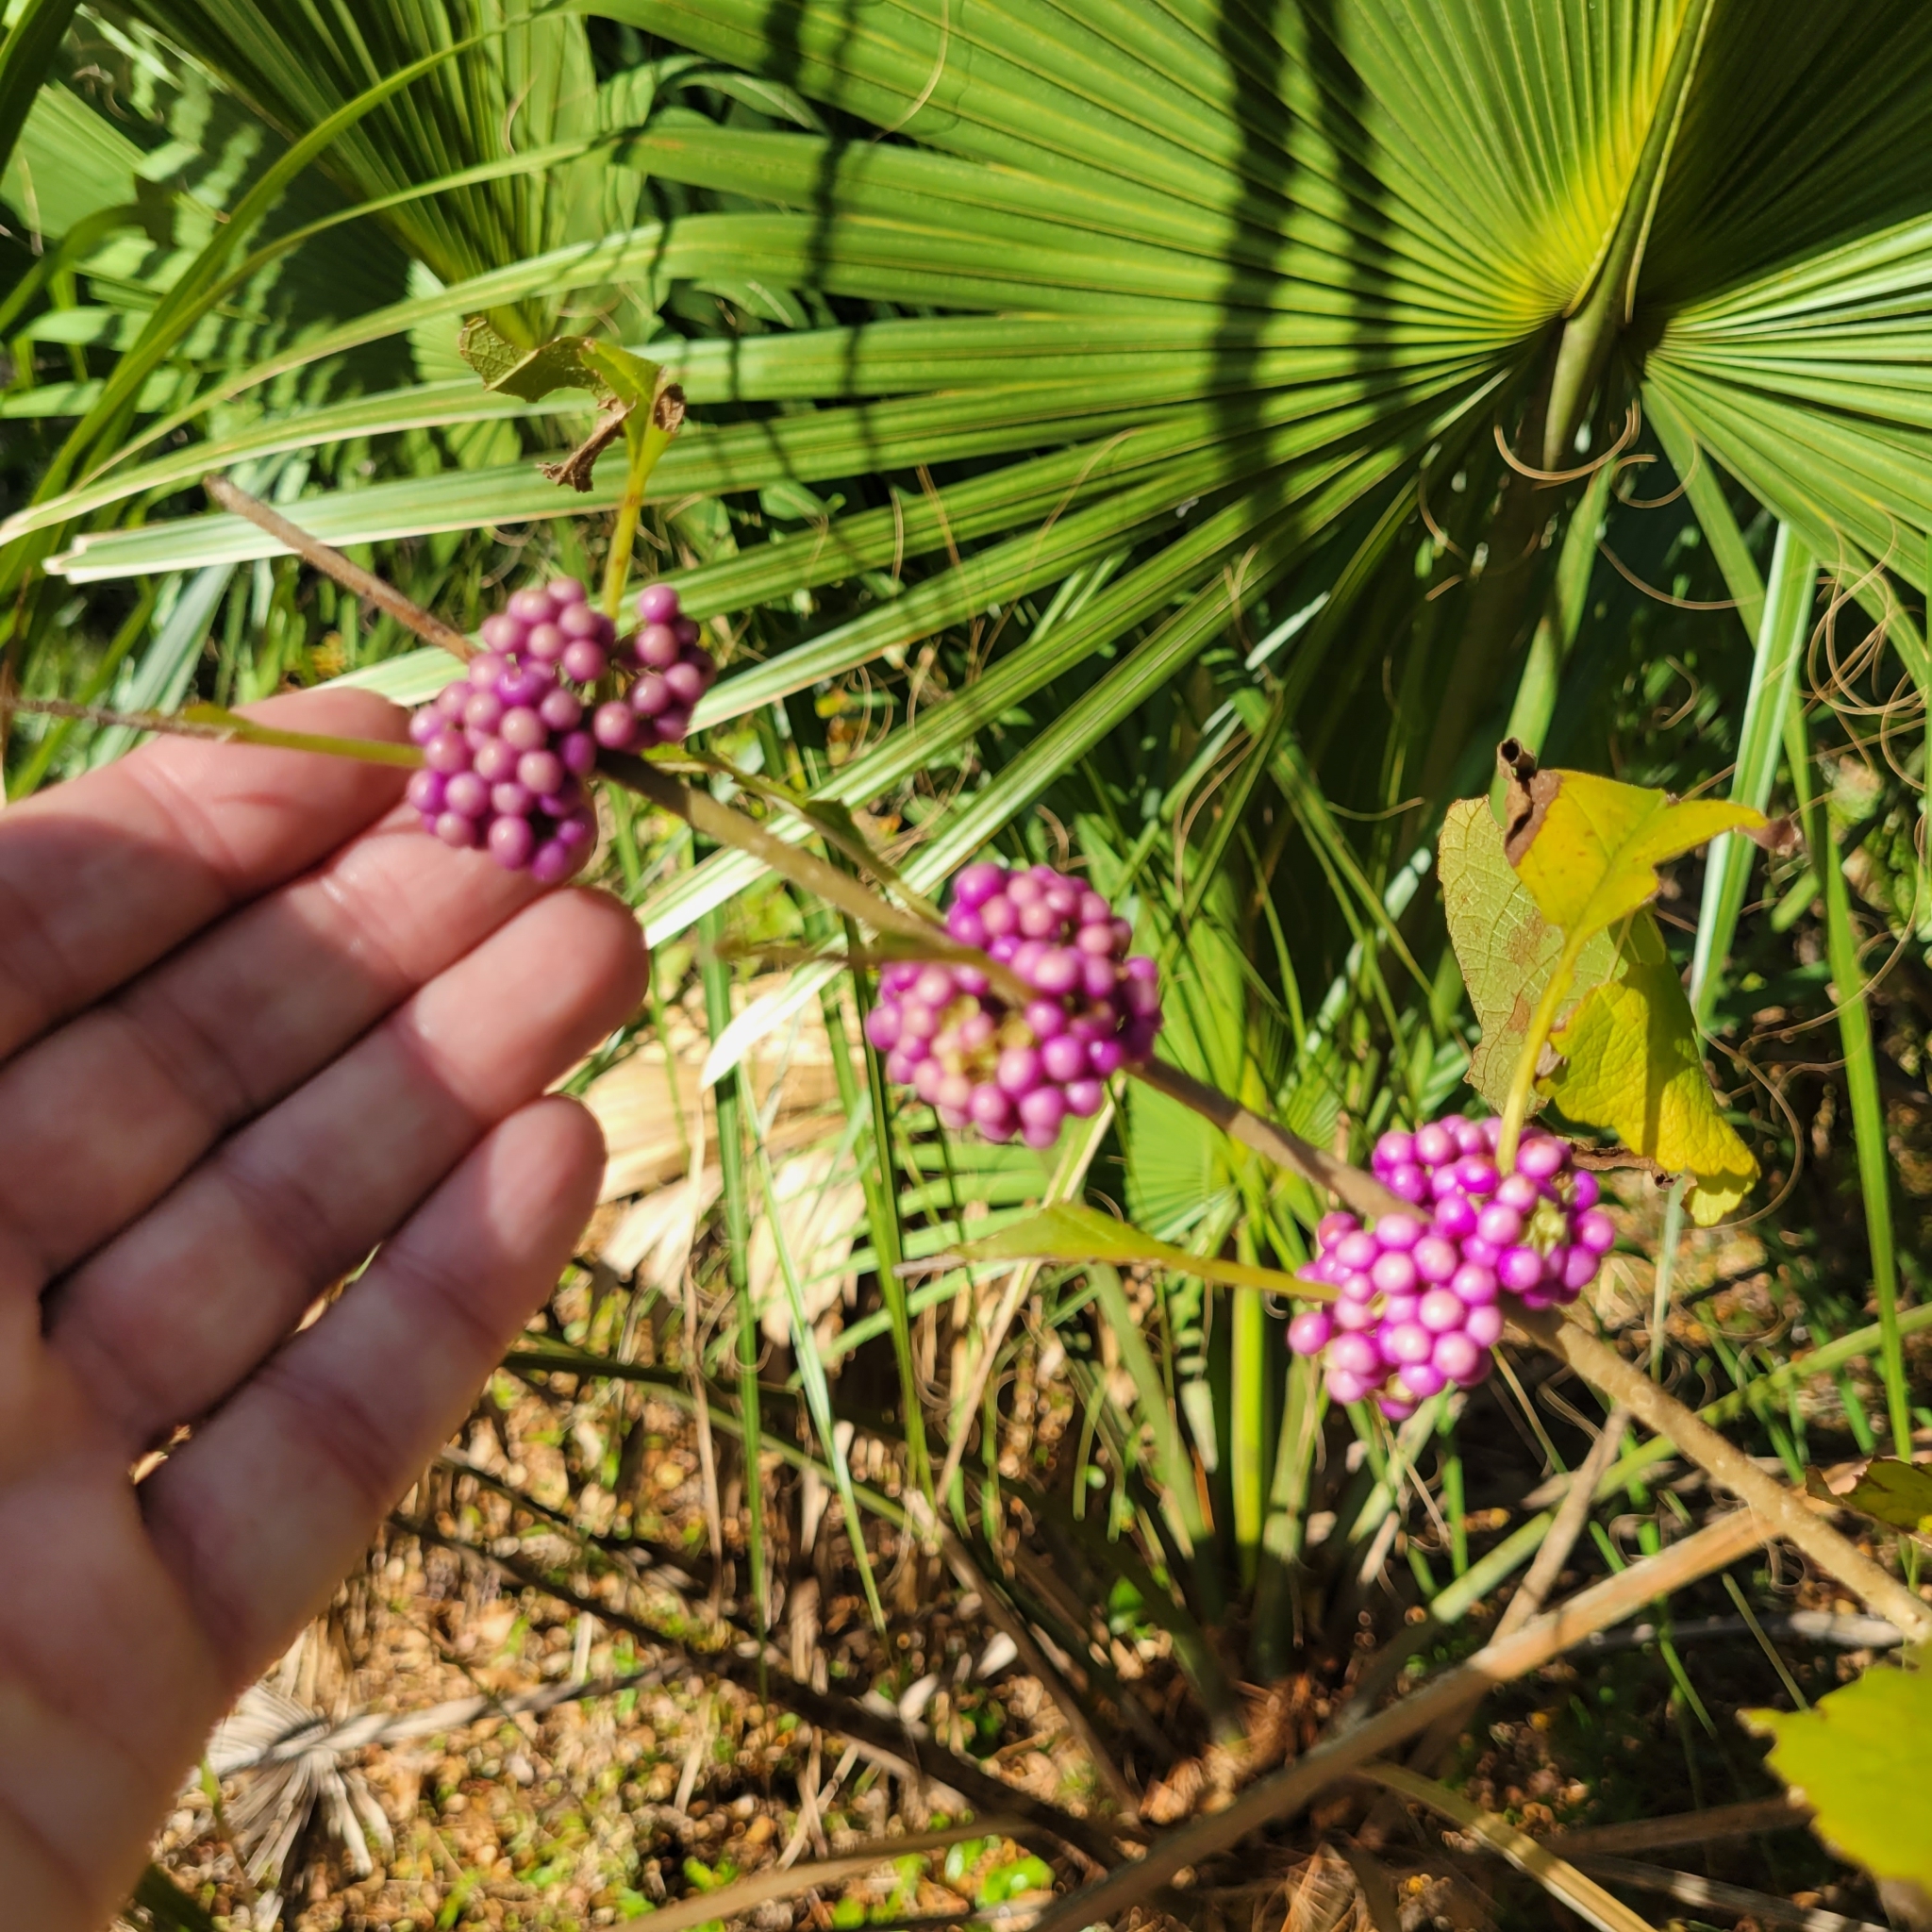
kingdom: Plantae
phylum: Tracheophyta
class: Magnoliopsida
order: Lamiales
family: Lamiaceae
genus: Callicarpa
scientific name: Callicarpa americana
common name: American beautyberry
